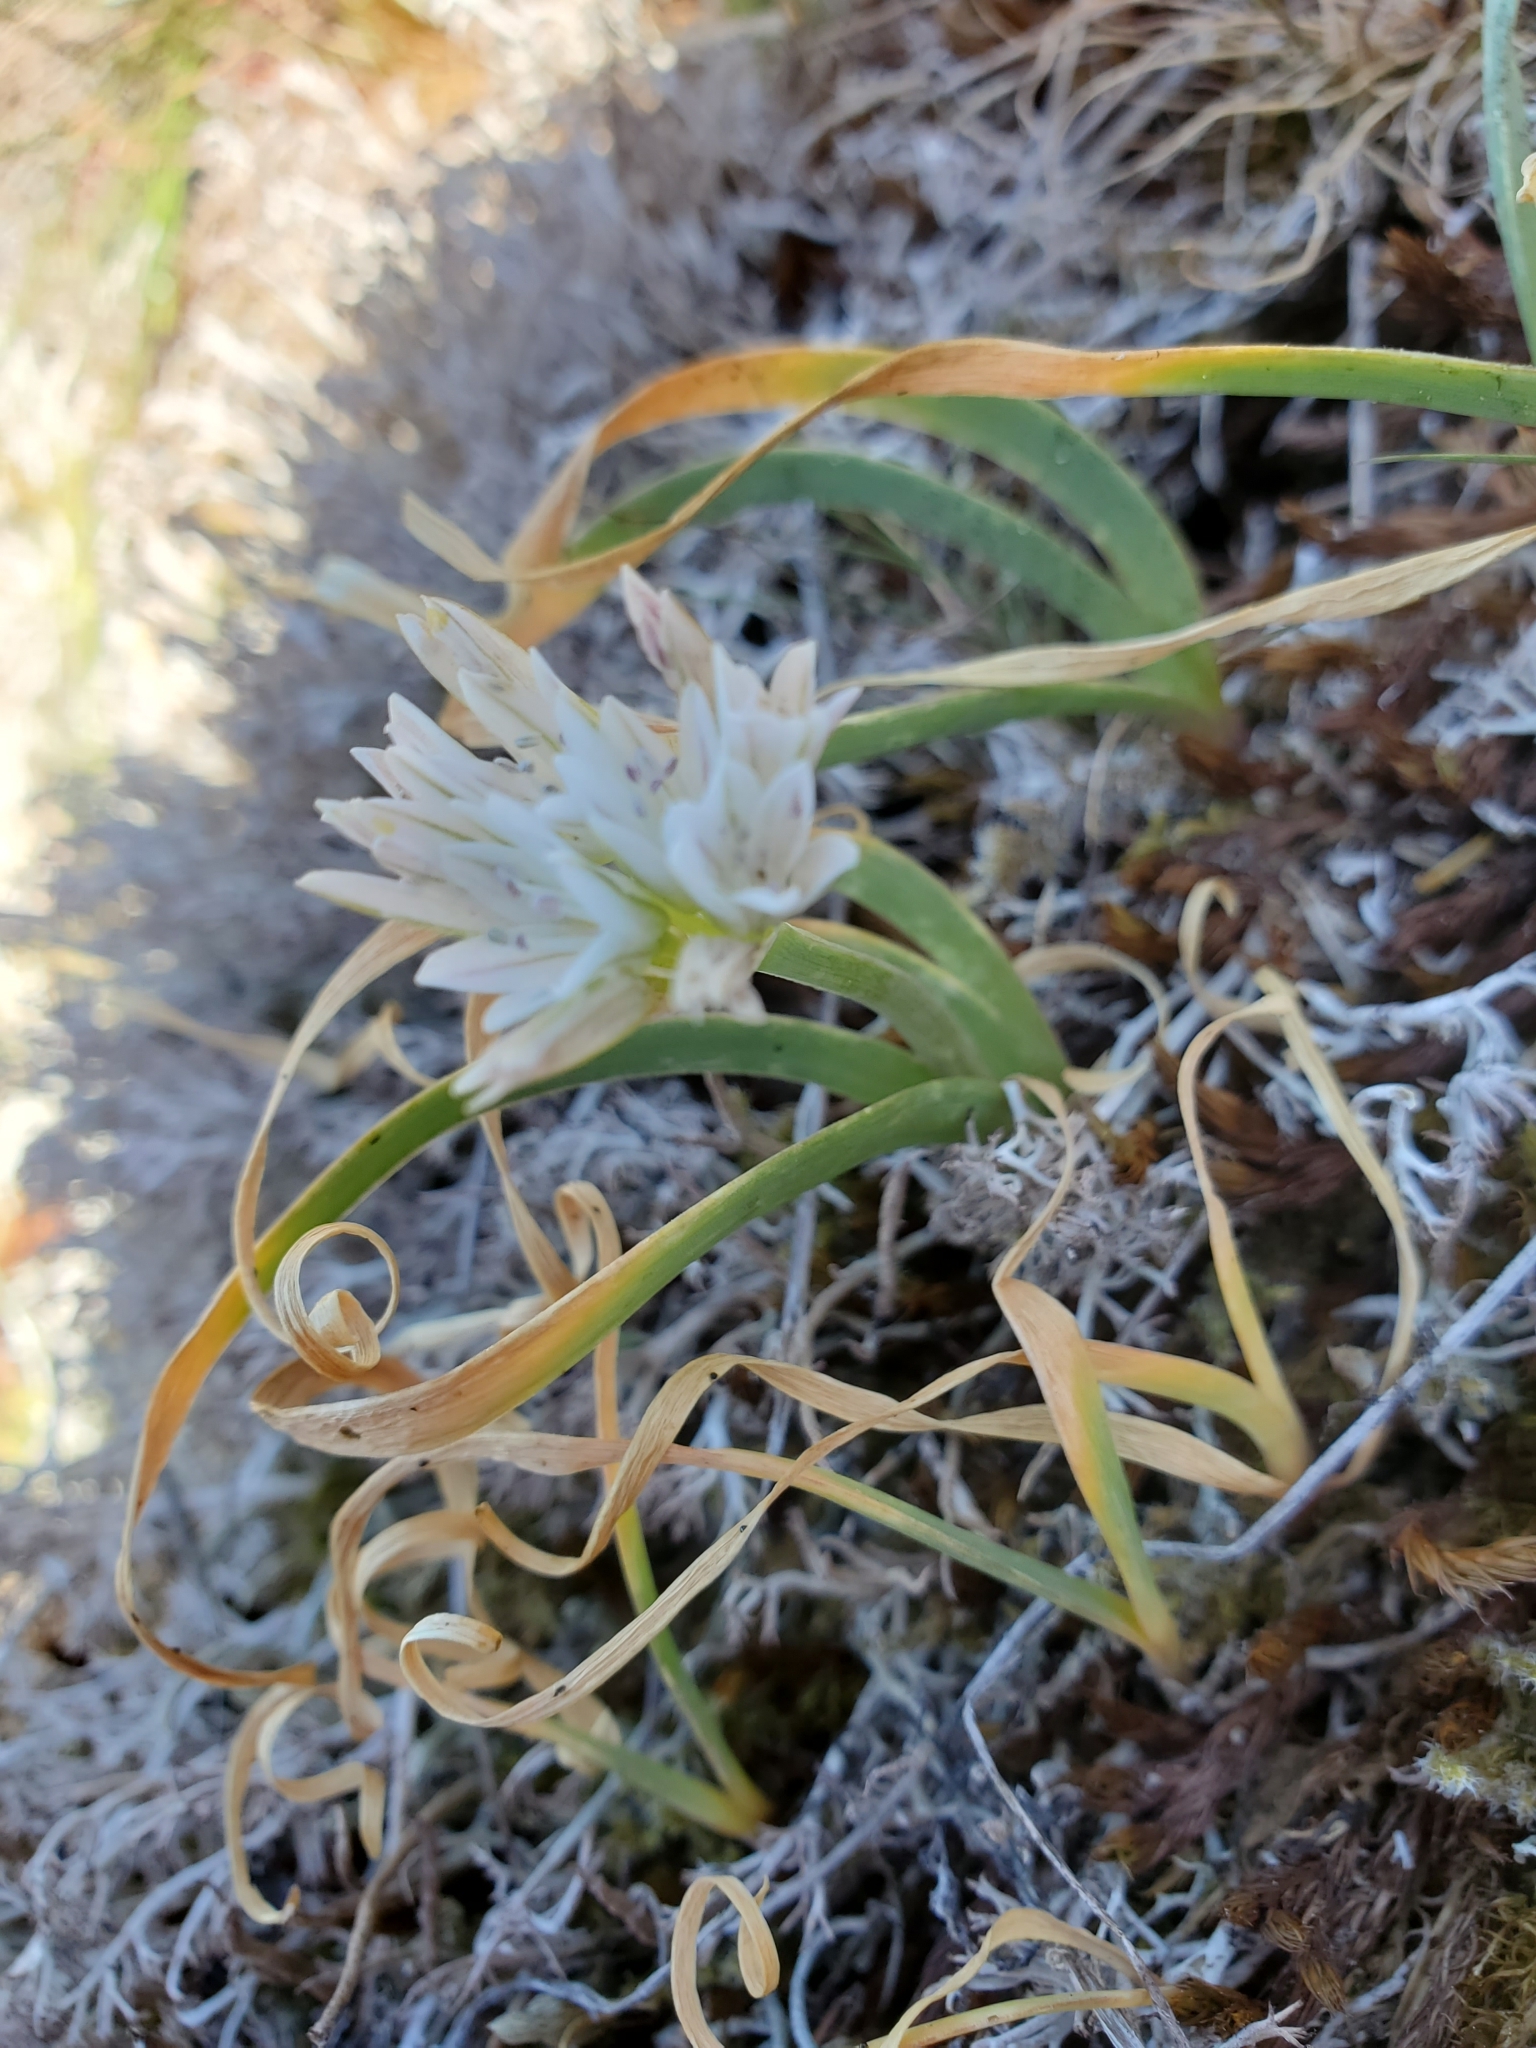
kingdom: Plantae
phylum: Tracheophyta
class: Liliopsida
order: Asparagales
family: Amaryllidaceae
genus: Allium
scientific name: Allium crenulatum
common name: Olympic onion
